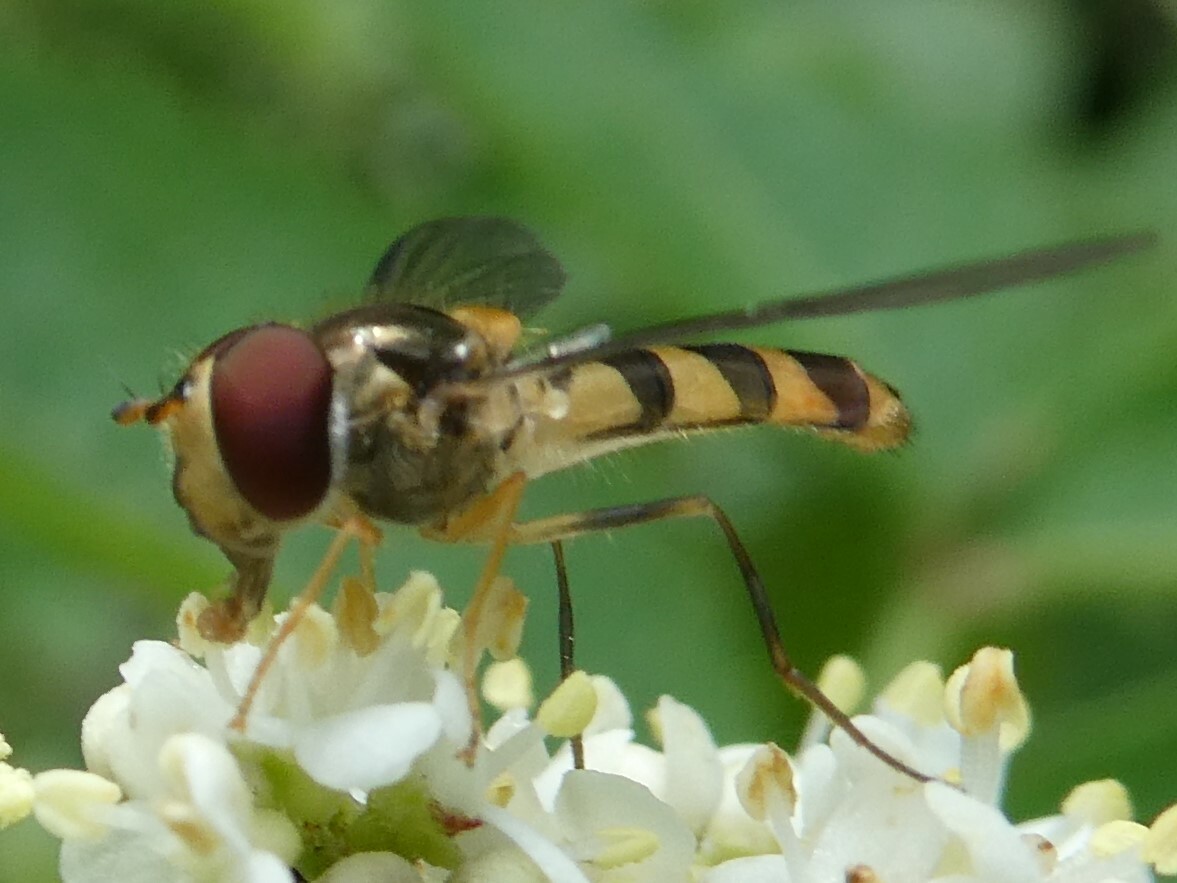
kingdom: Animalia
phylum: Arthropoda
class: Insecta
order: Diptera
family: Syrphidae
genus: Meliscaeva
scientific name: Meliscaeva cinctella
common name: American thintail fly
